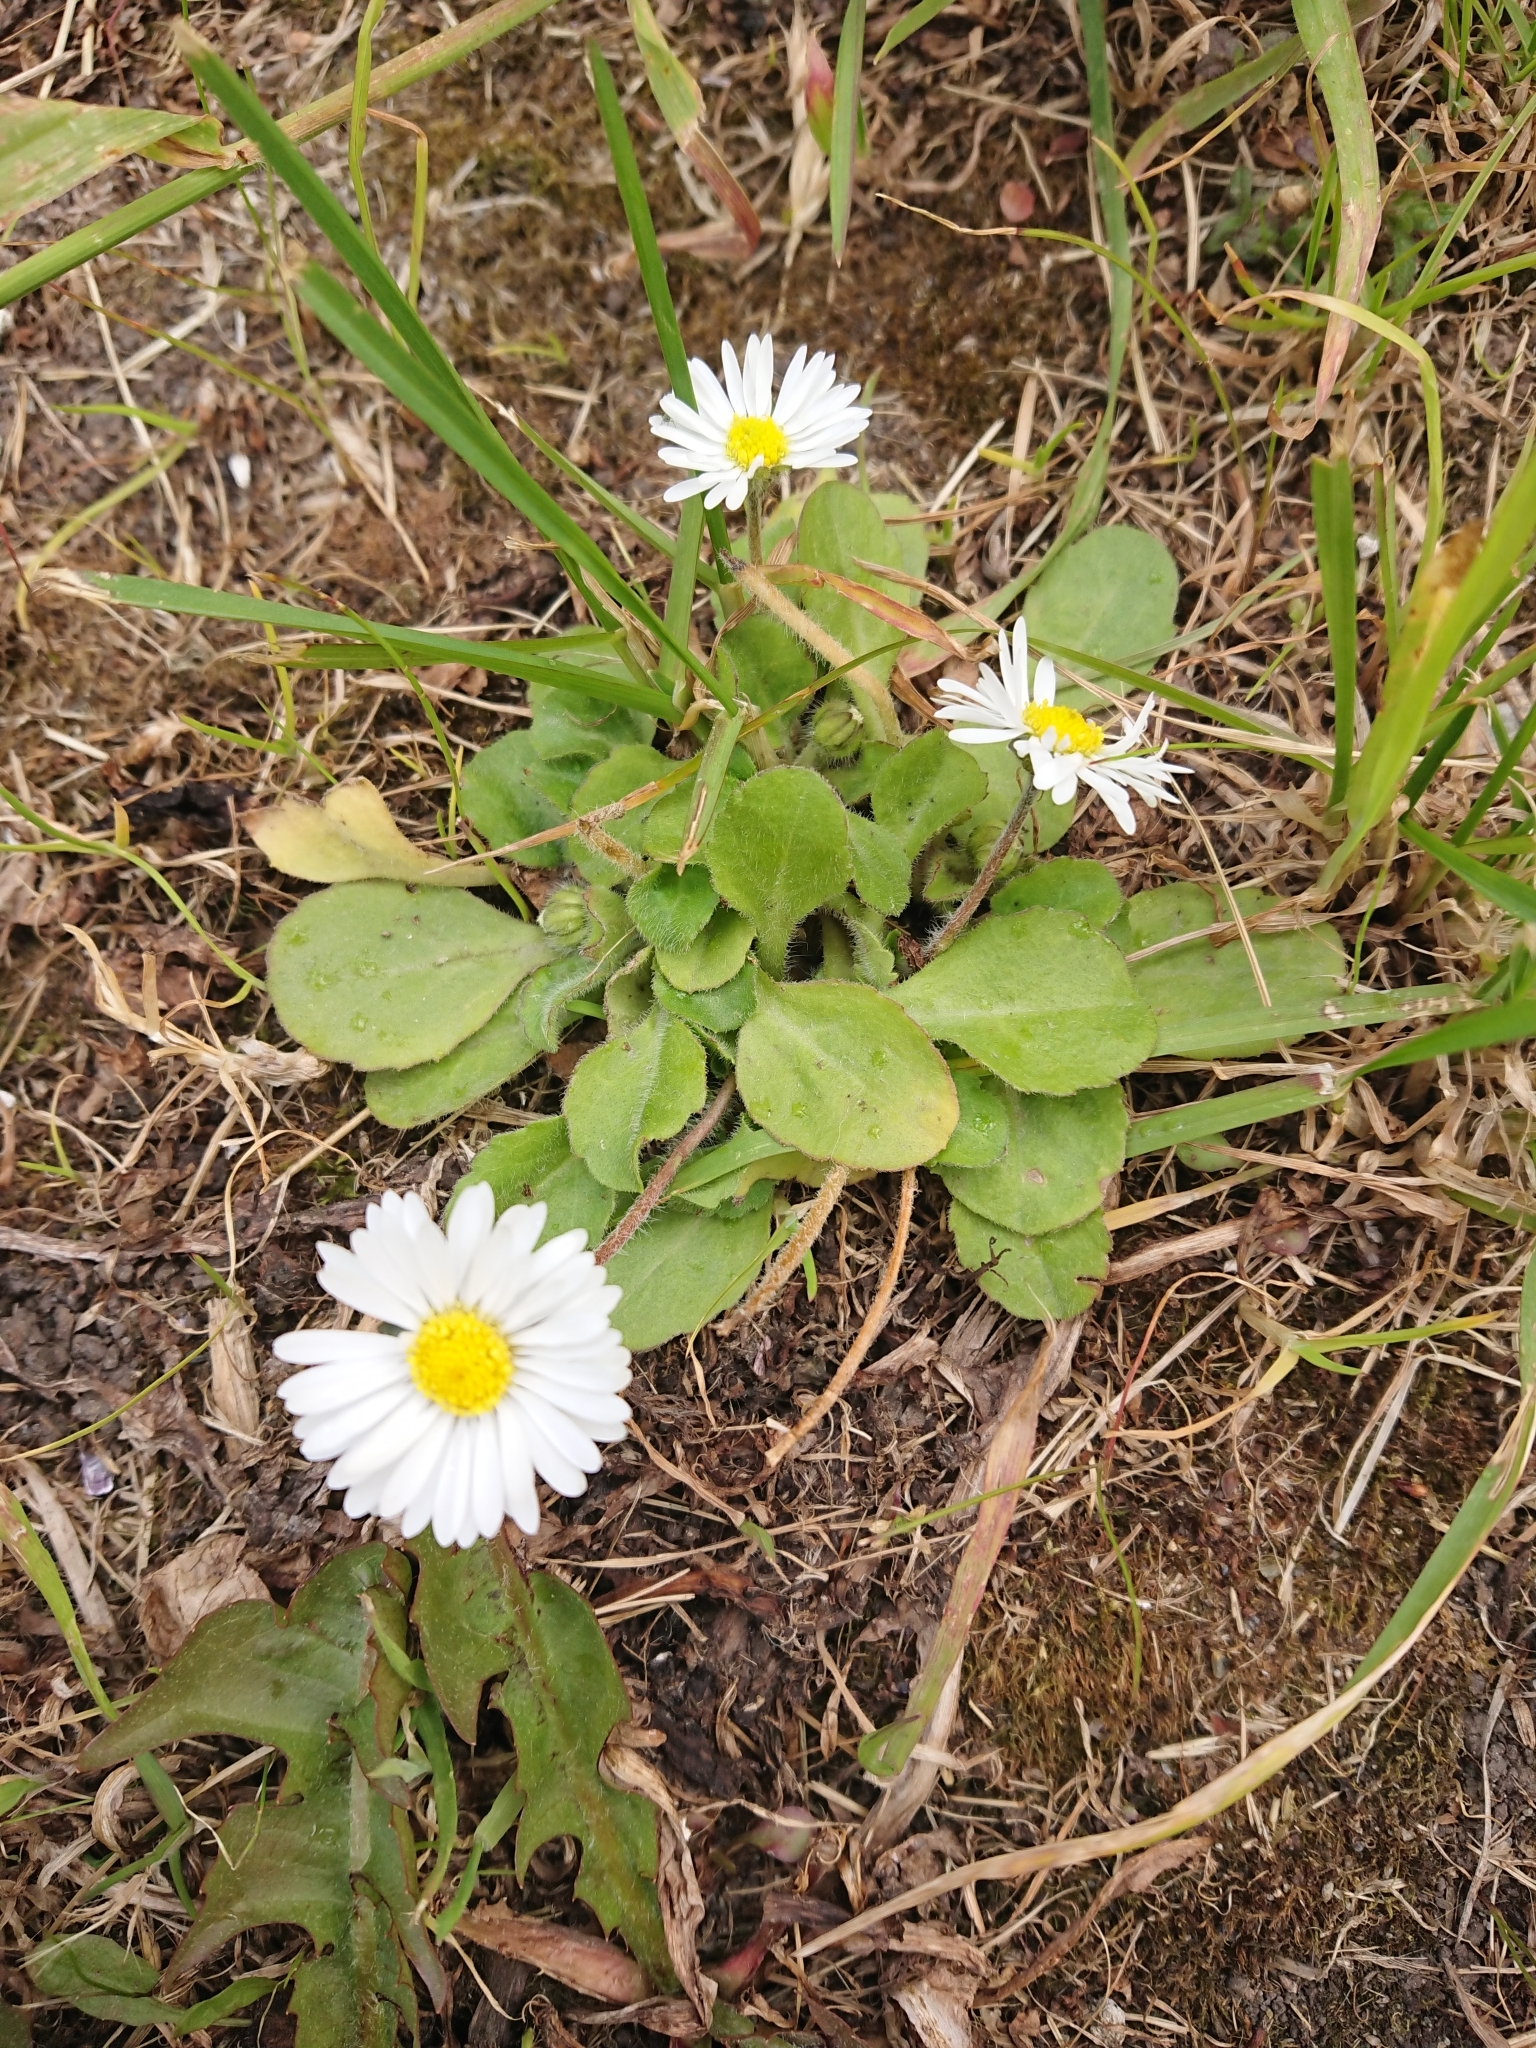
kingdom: Plantae
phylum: Tracheophyta
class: Magnoliopsida
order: Asterales
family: Asteraceae
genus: Bellis
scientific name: Bellis perennis
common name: Lawndaisy
